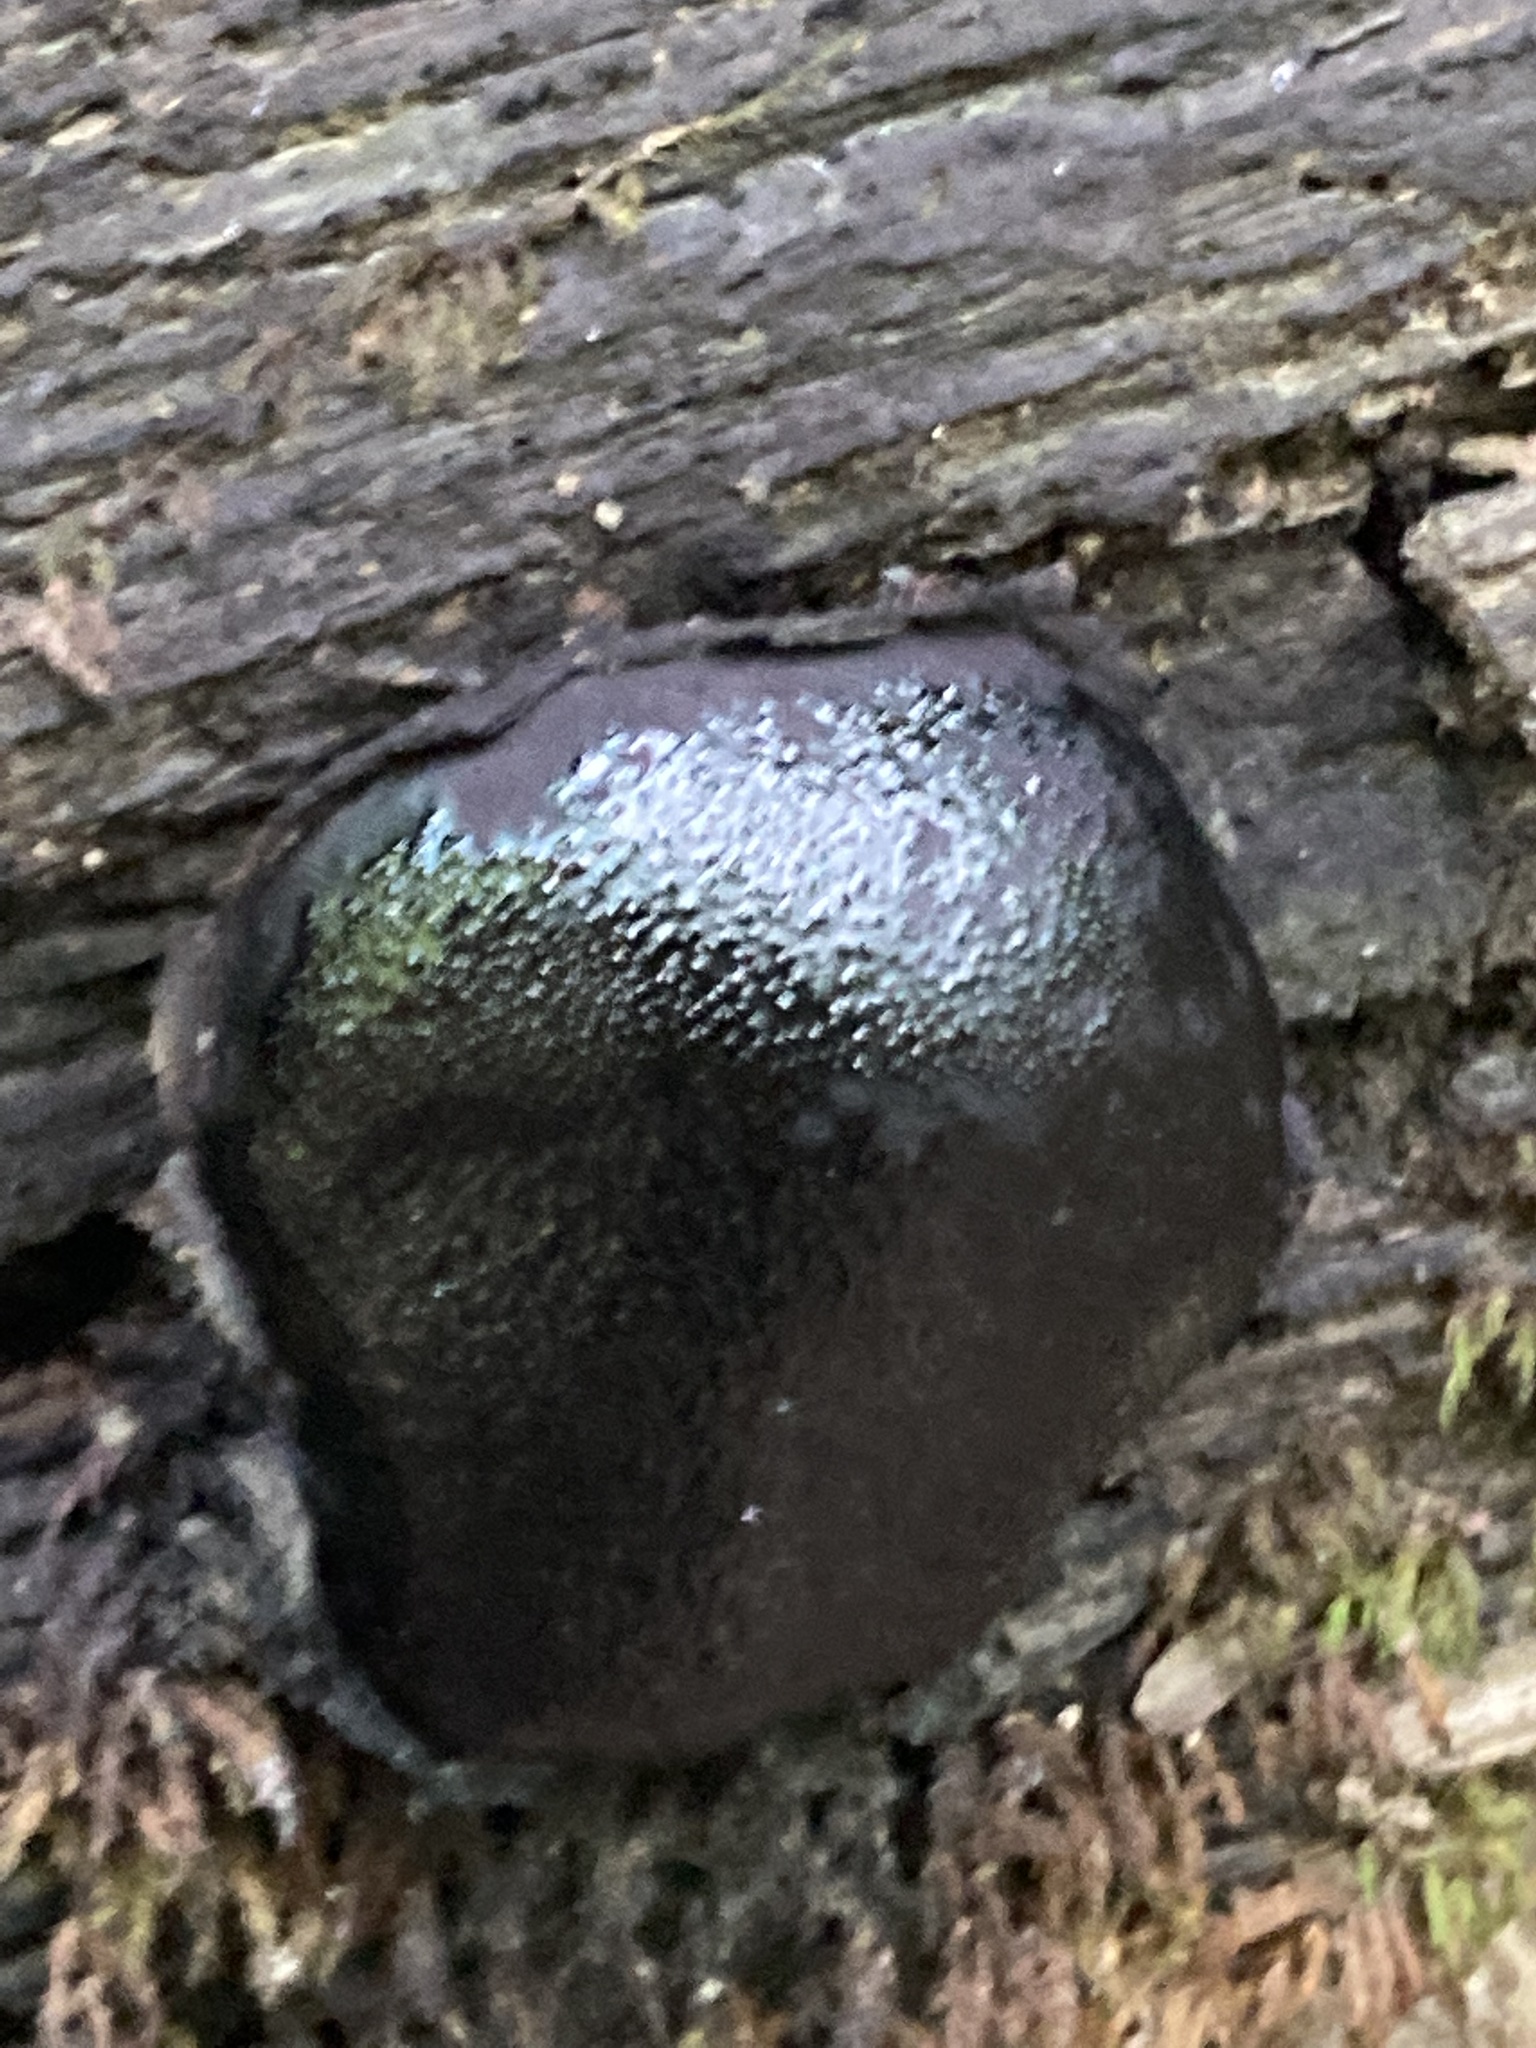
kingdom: Fungi
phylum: Ascomycota
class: Sordariomycetes
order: Boliniales
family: Boliniaceae
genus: Camarops
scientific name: Camarops petersii
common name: Dog's nose fungus
